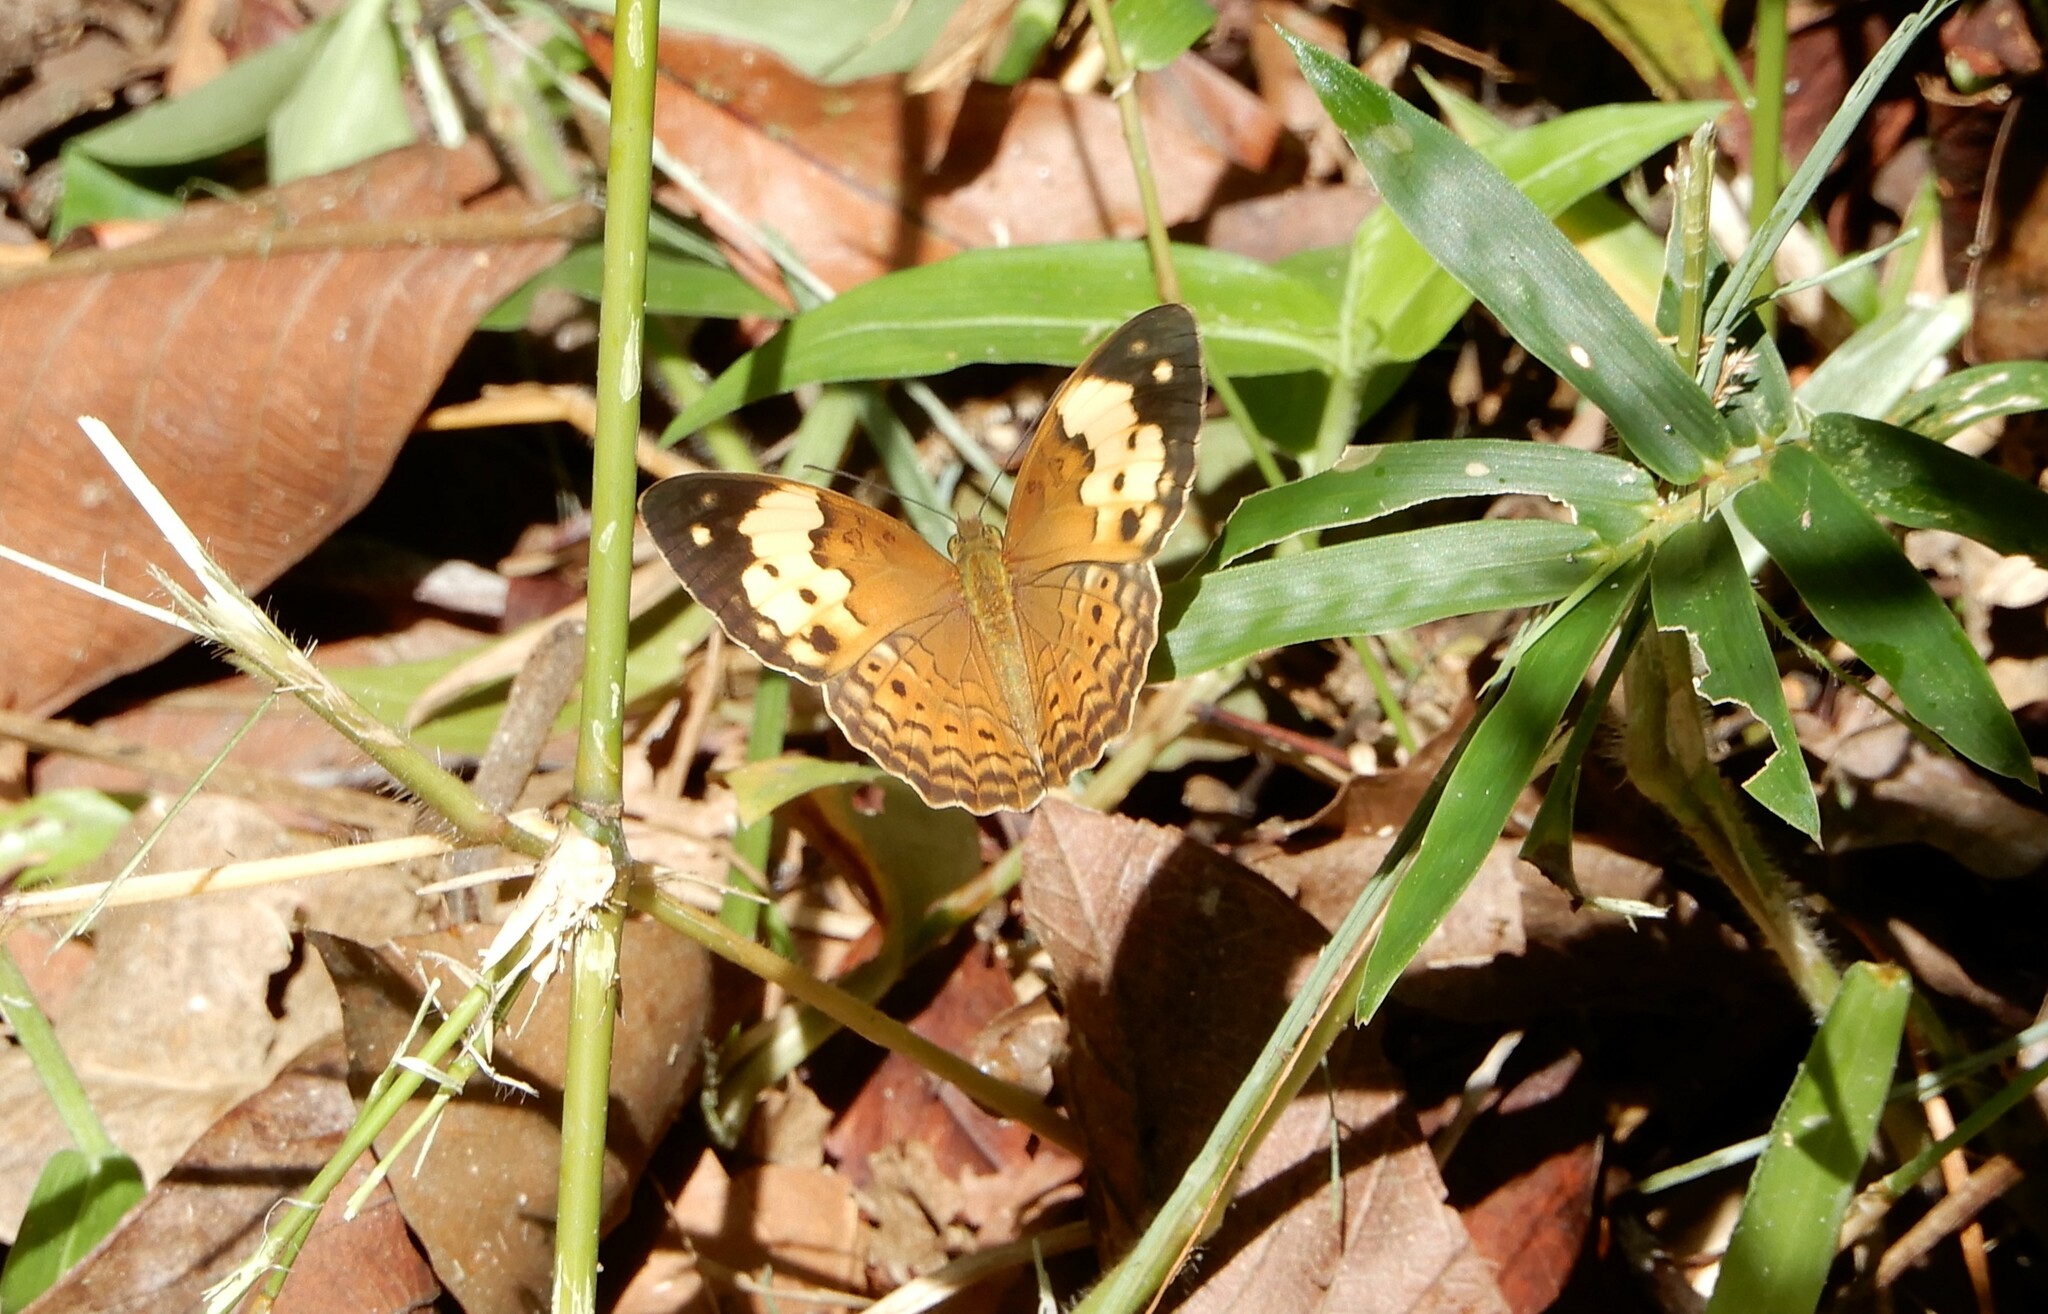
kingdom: Animalia
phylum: Arthropoda
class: Insecta
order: Lepidoptera
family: Nymphalidae
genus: Cupha
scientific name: Cupha erymanthis
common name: Rustic
